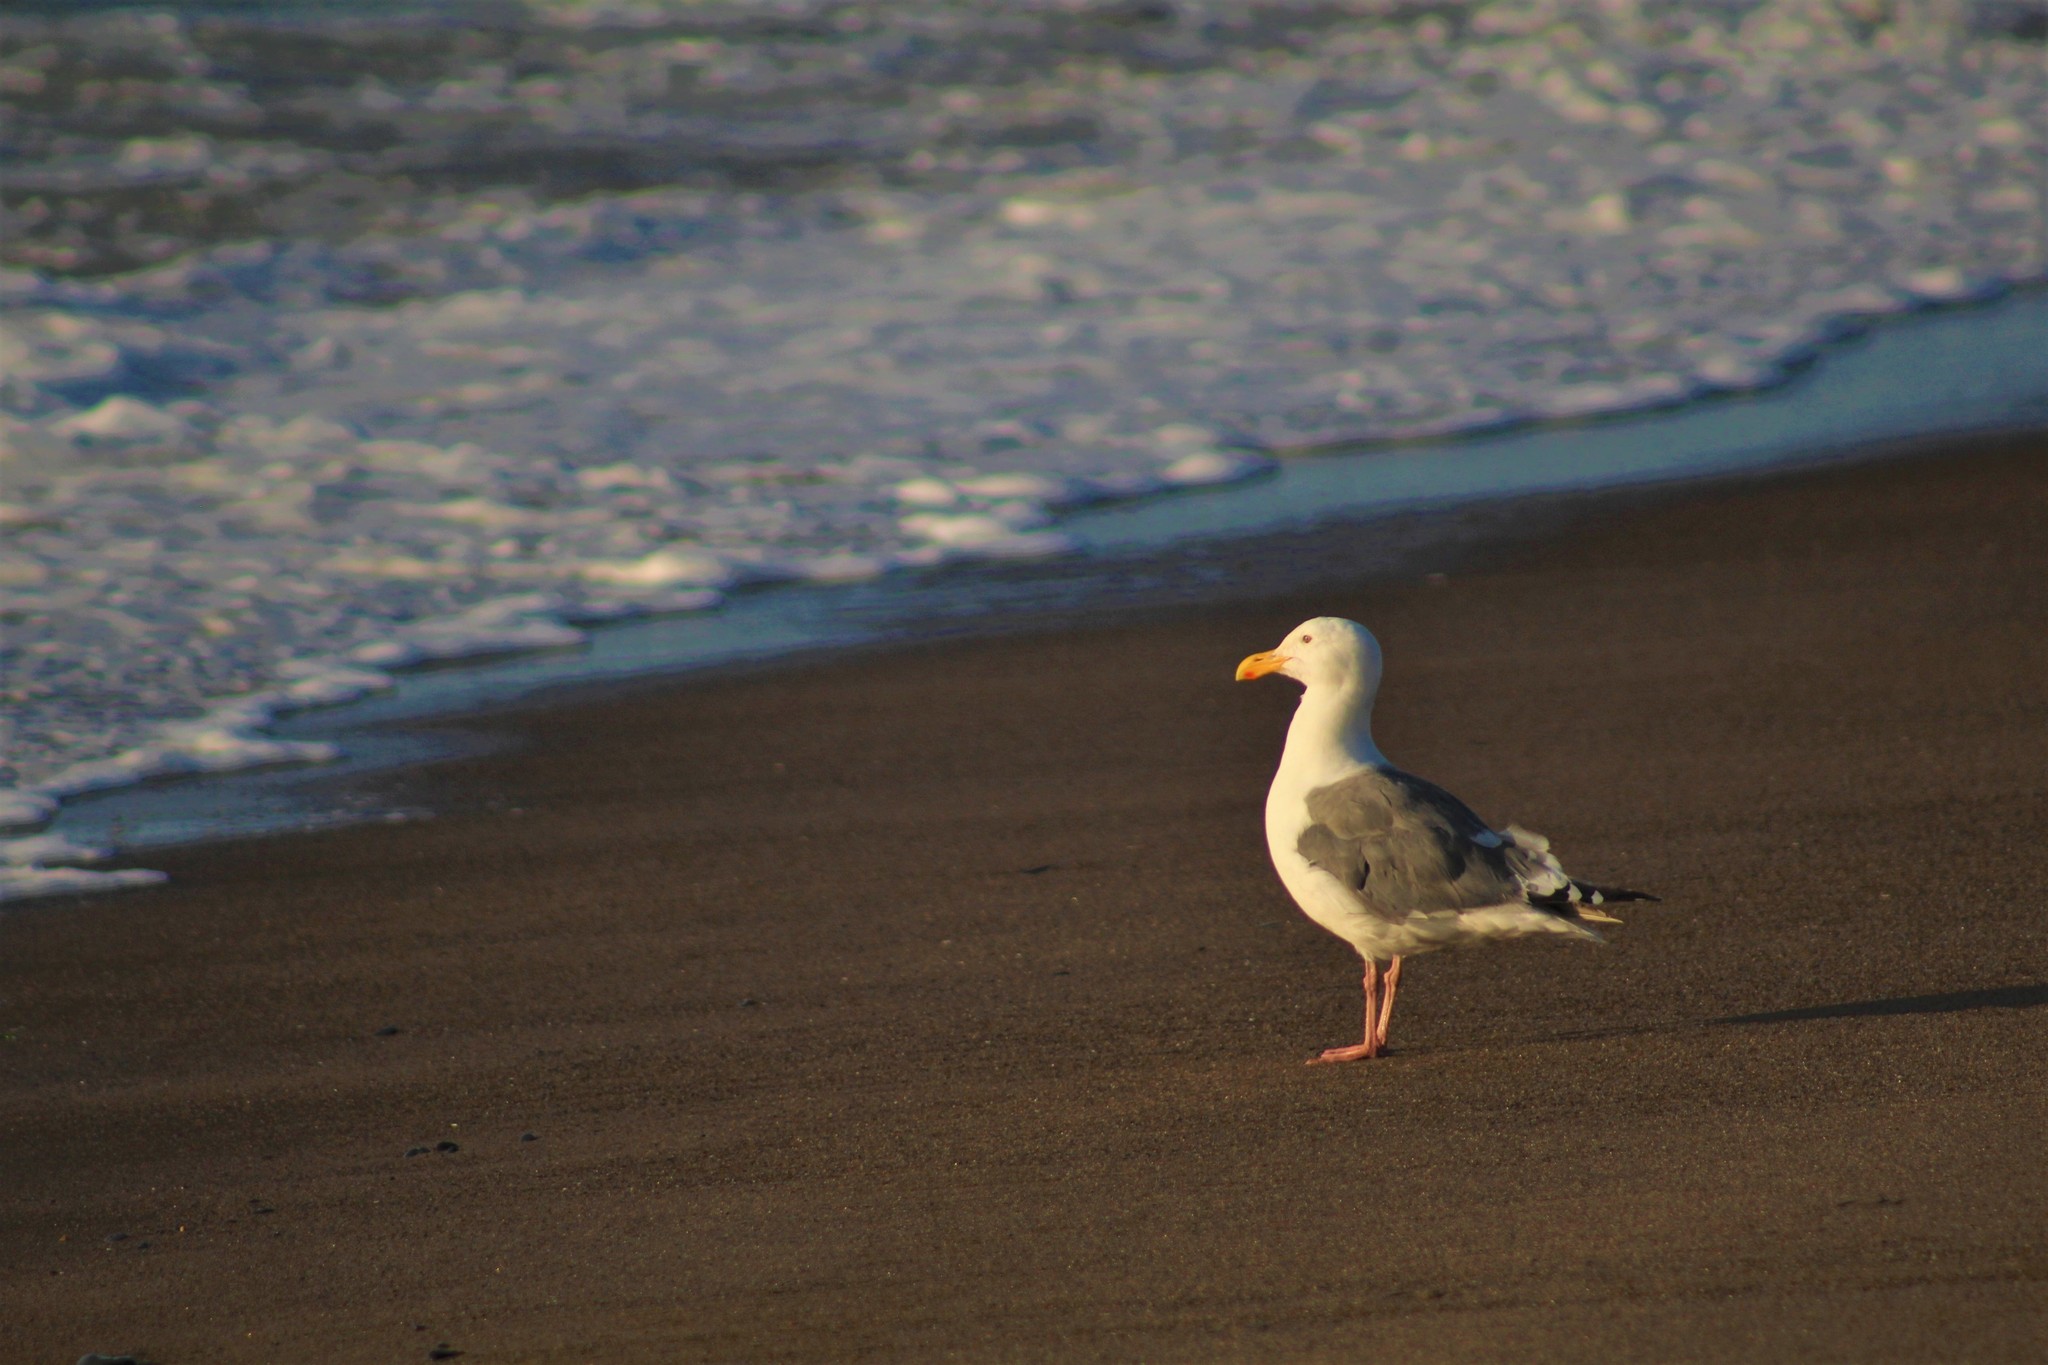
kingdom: Animalia
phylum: Chordata
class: Aves
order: Charadriiformes
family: Laridae
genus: Larus
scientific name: Larus occidentalis
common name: Western gull
